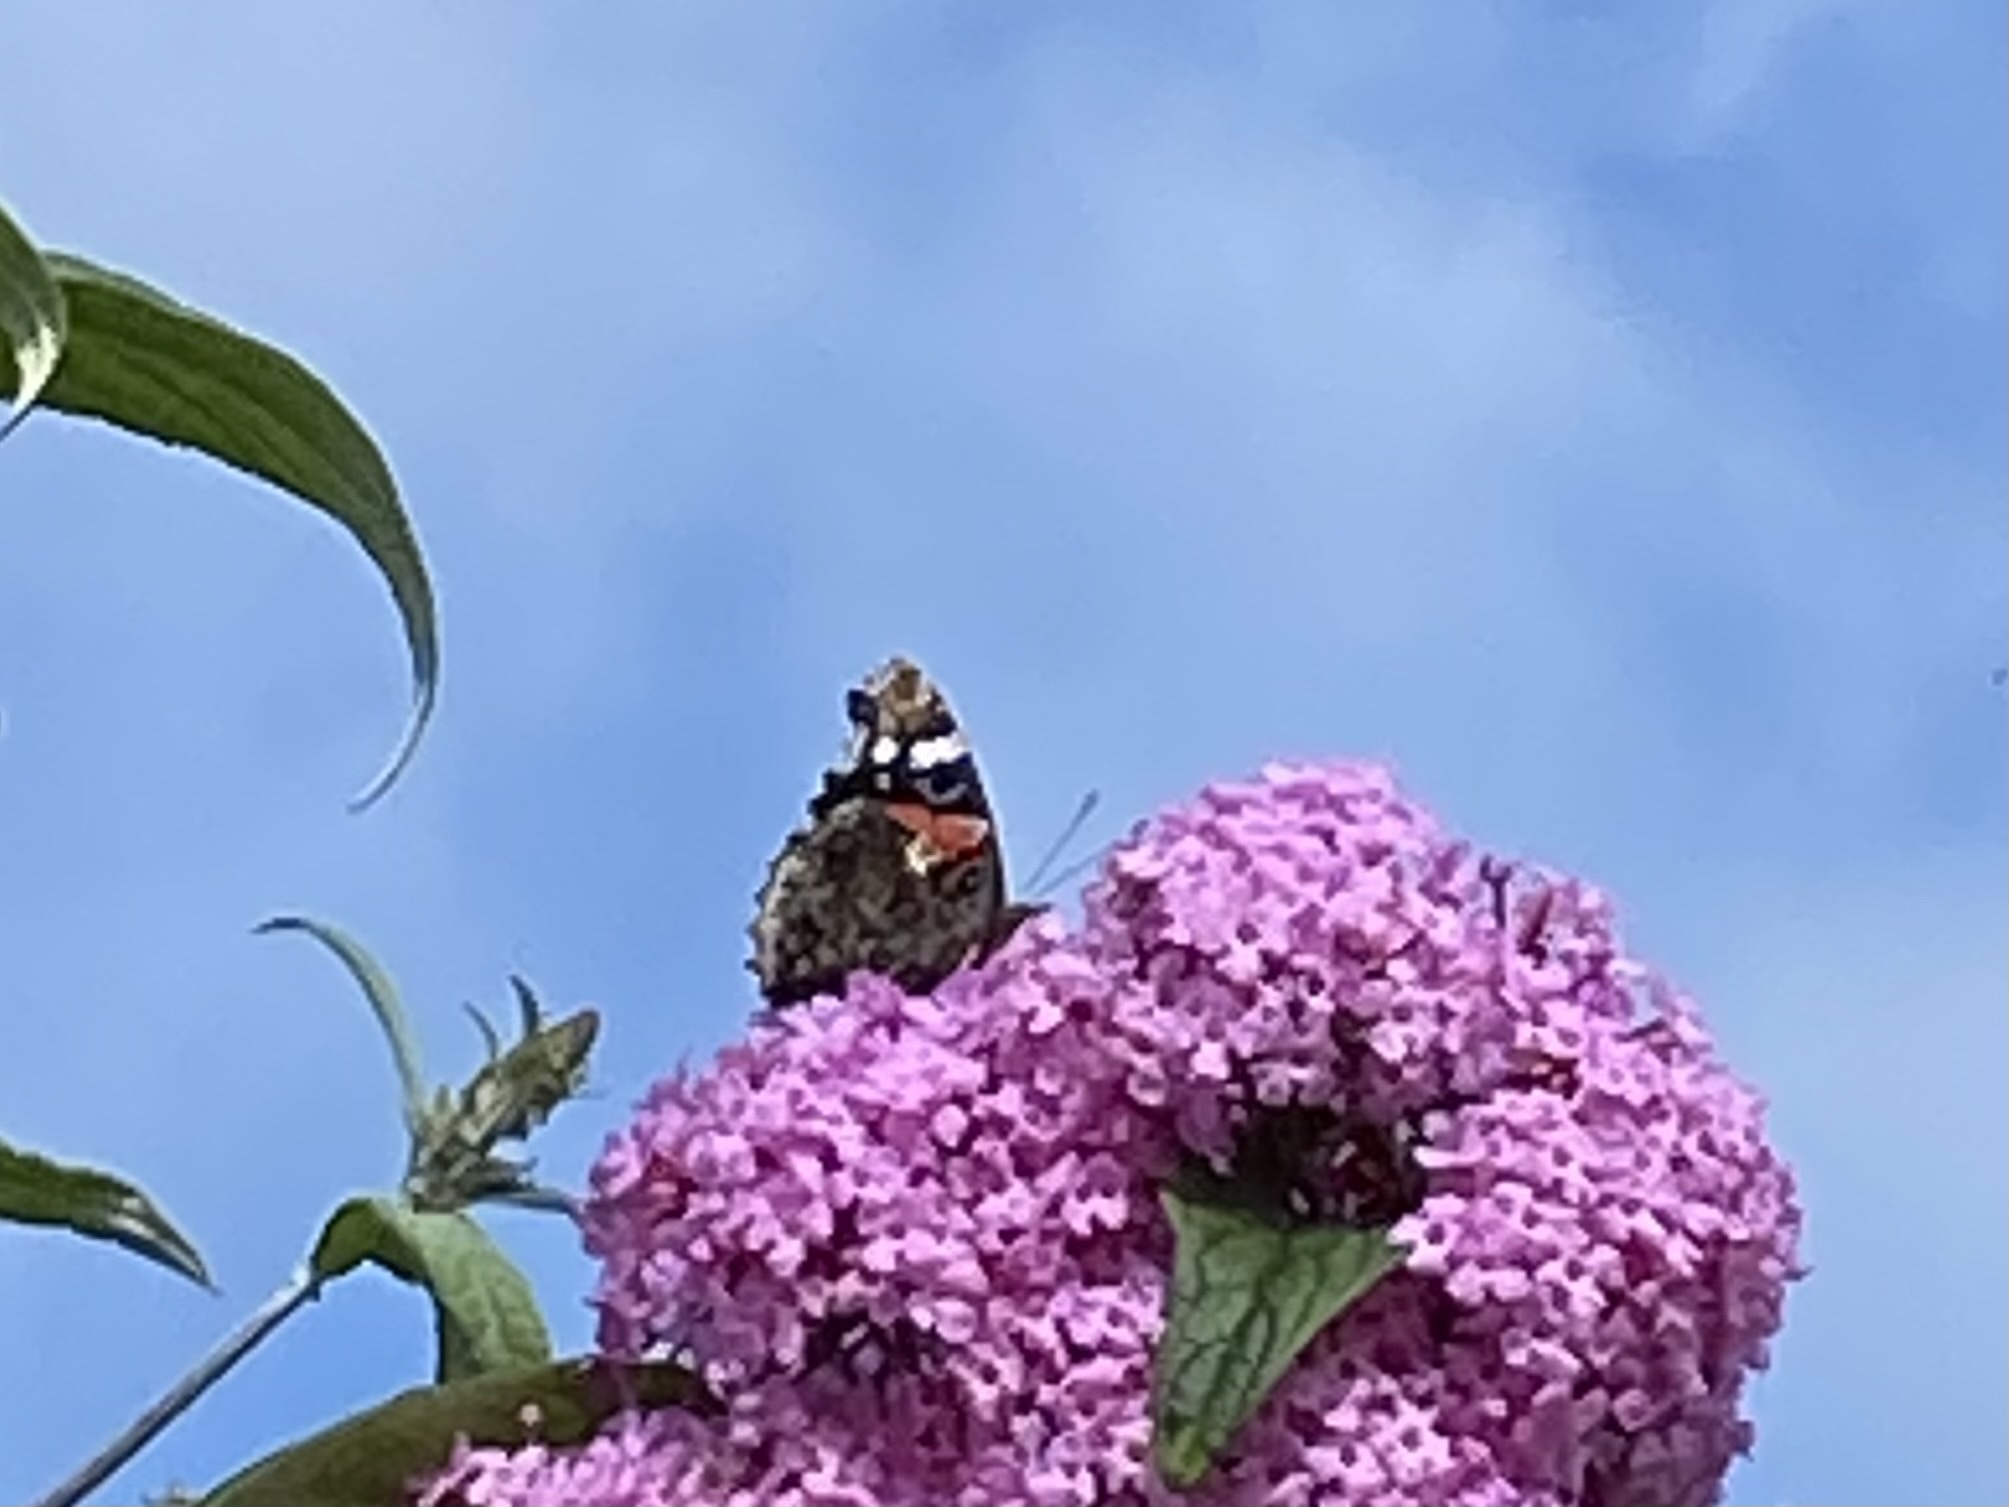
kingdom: Animalia
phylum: Arthropoda
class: Insecta
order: Lepidoptera
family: Nymphalidae
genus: Vanessa
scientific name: Vanessa atalanta
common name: Red admiral
